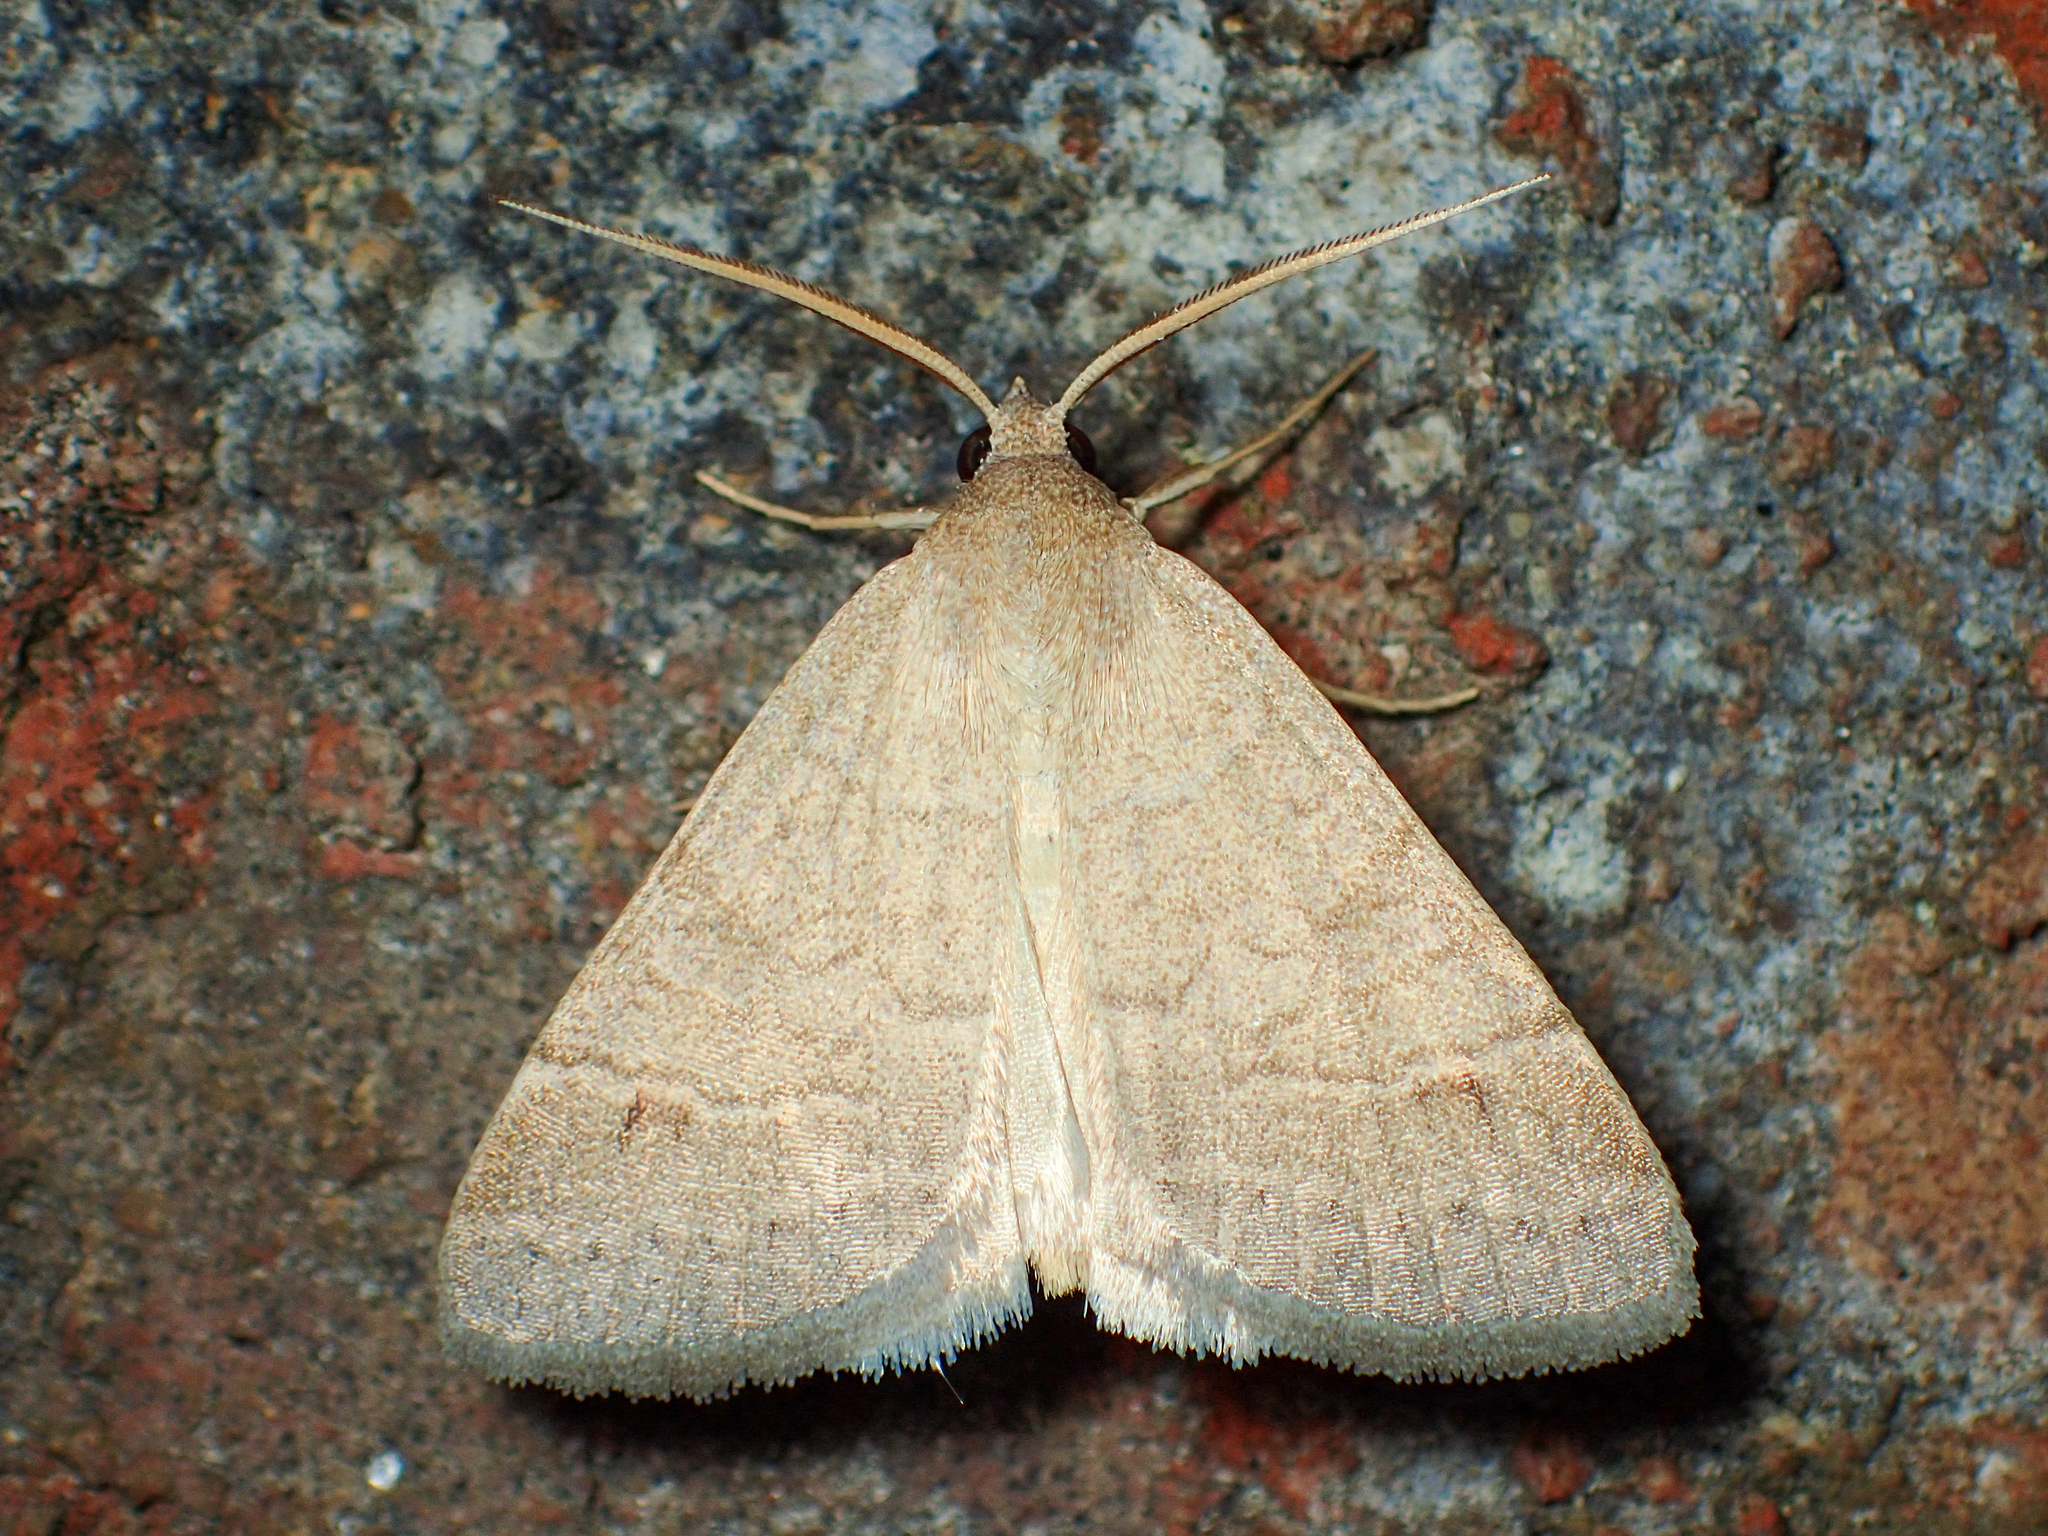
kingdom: Animalia
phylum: Arthropoda
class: Insecta
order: Lepidoptera
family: Erebidae
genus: Caenurgia
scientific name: Caenurgia chloropha
